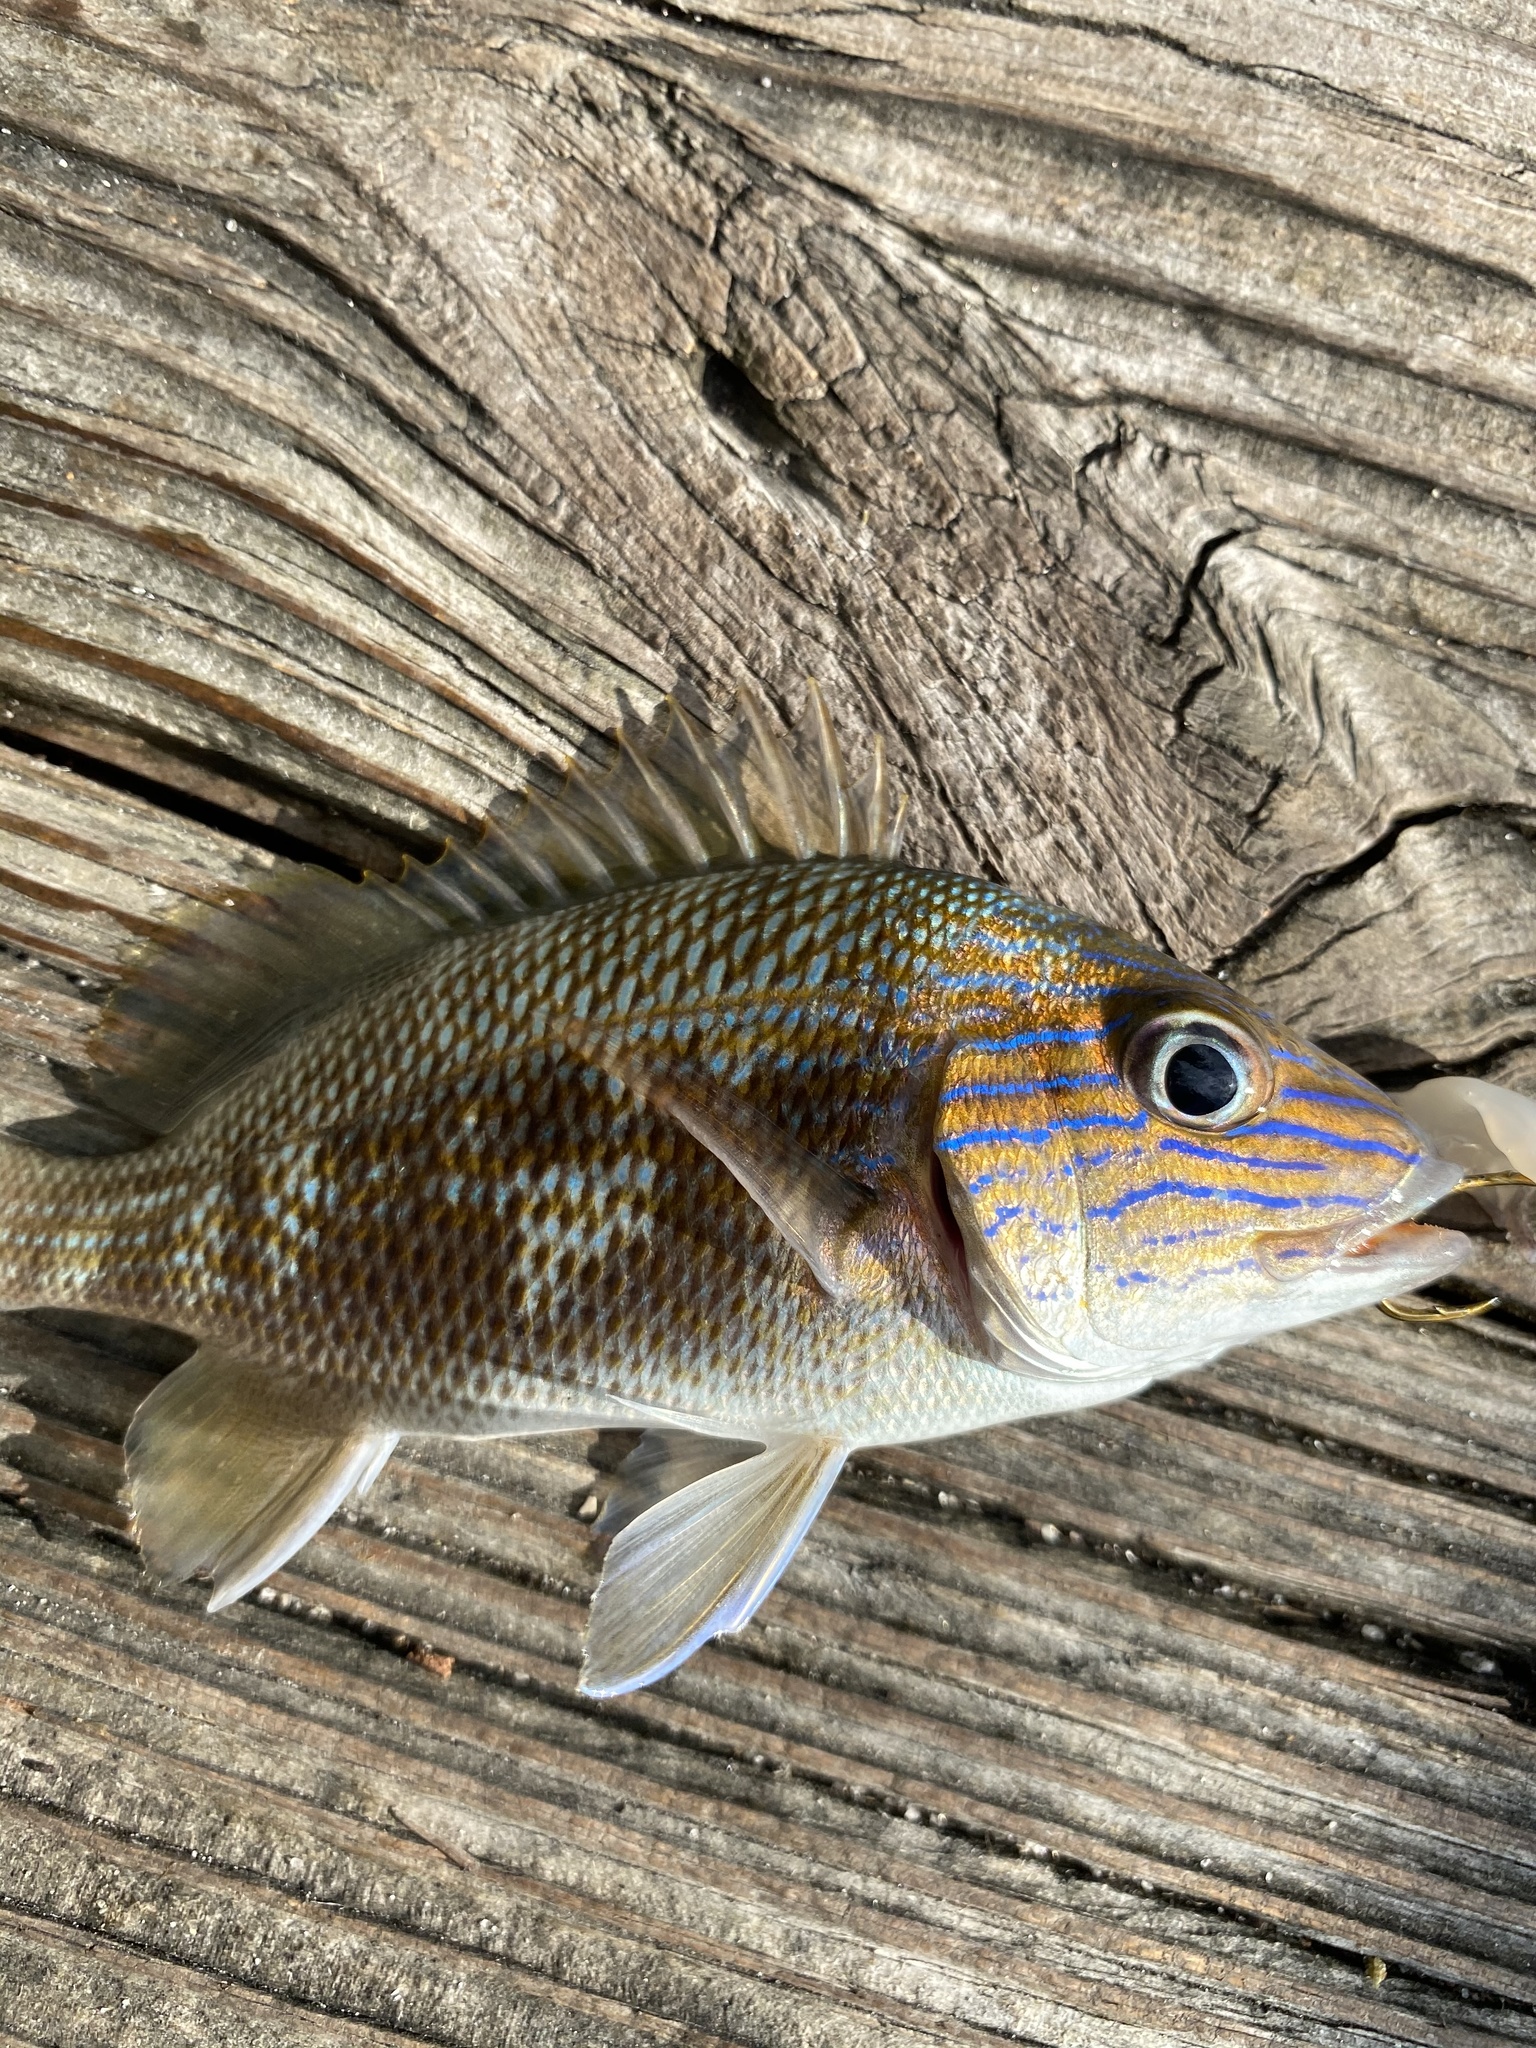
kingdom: Animalia
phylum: Chordata
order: Perciformes
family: Haemulidae
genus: Haemulon
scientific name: Haemulon plumierii
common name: White grunt
